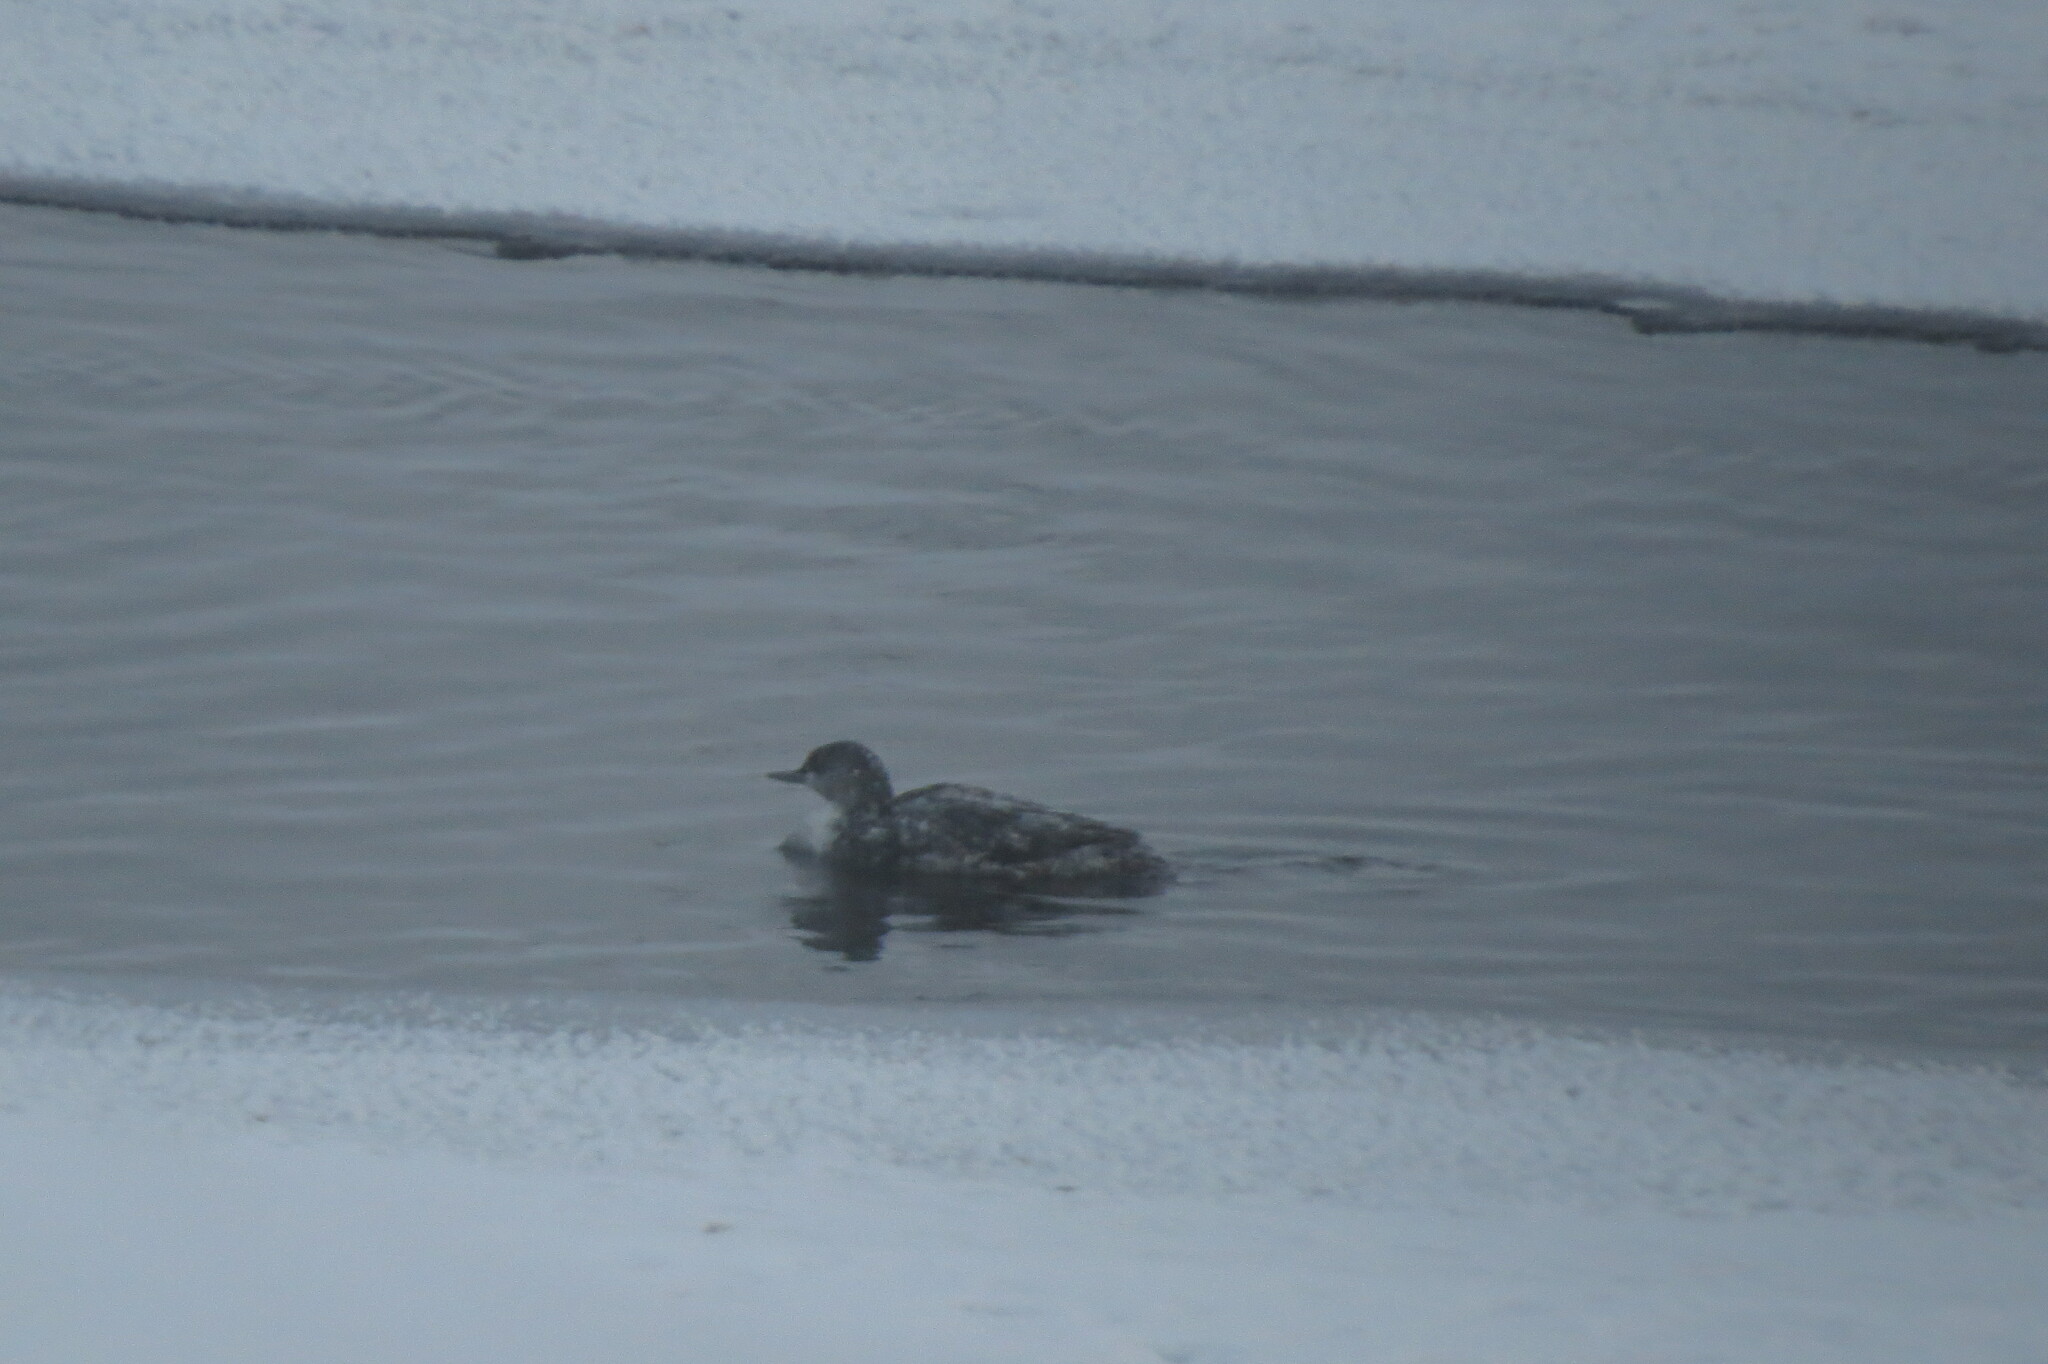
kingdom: Animalia
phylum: Chordata
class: Aves
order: Gaviiformes
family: Gaviidae
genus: Gavia
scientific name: Gavia stellata
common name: Red-throated loon
